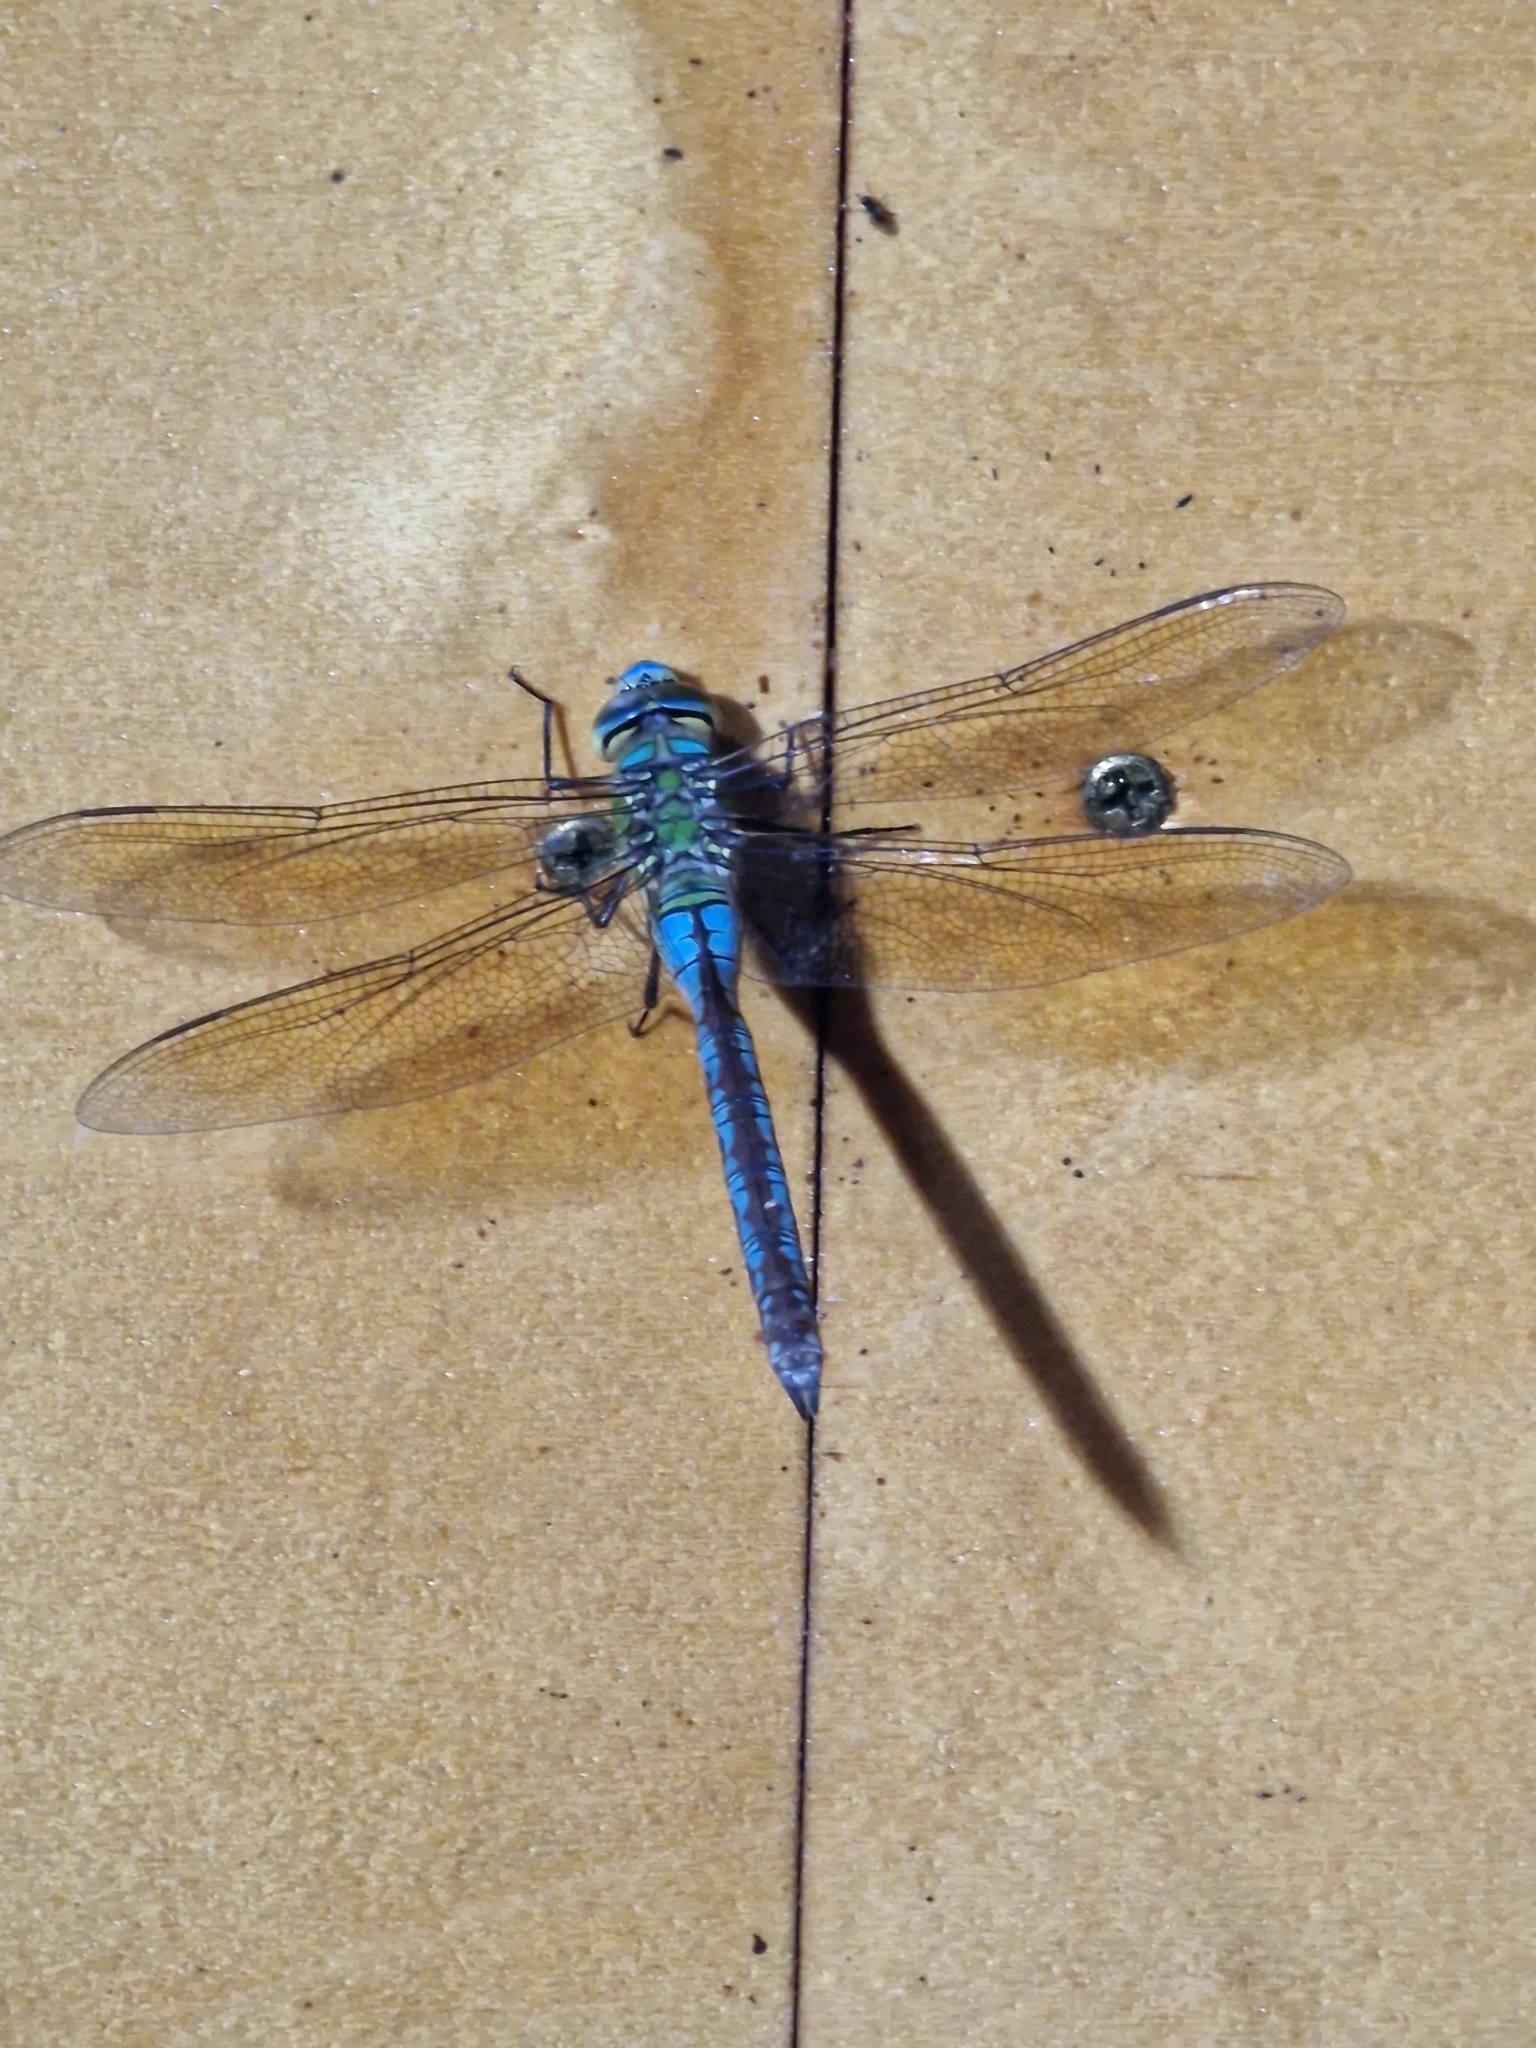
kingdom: Animalia
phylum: Arthropoda
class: Insecta
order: Odonata
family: Aeshnidae
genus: Anax
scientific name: Anax imperator
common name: Emperor dragonfly
